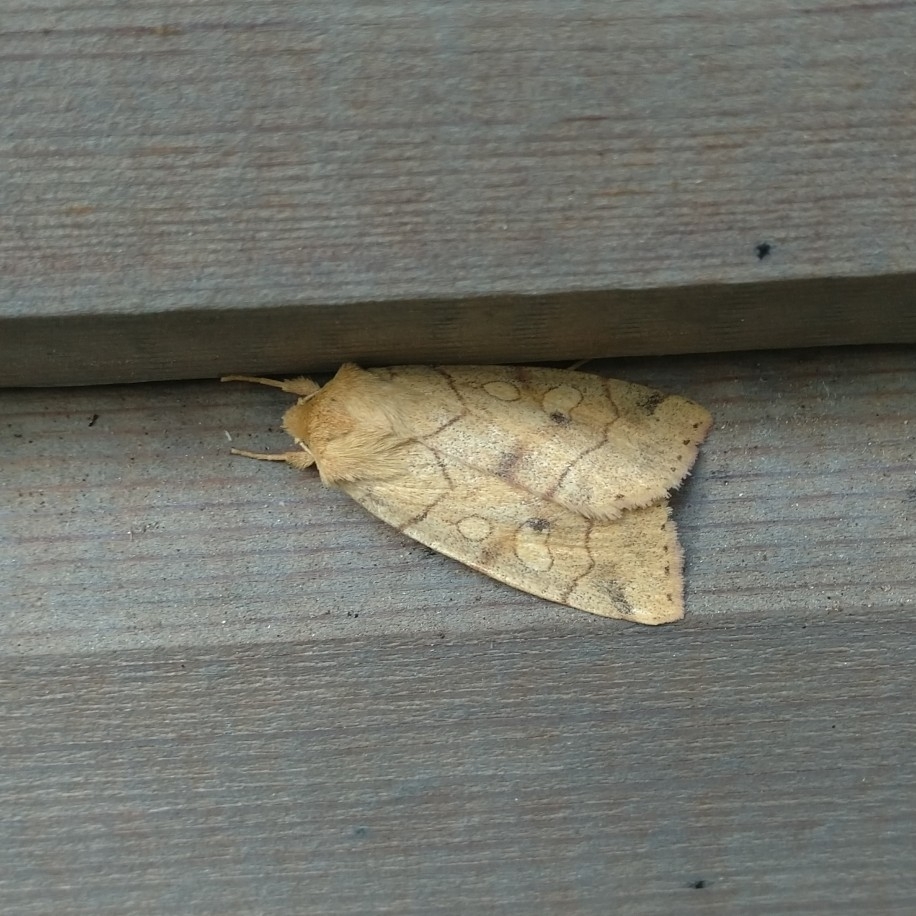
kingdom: Animalia
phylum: Arthropoda
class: Insecta
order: Lepidoptera
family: Noctuidae
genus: Enargia
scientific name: Enargia paleacea
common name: Angle-striped sallow
